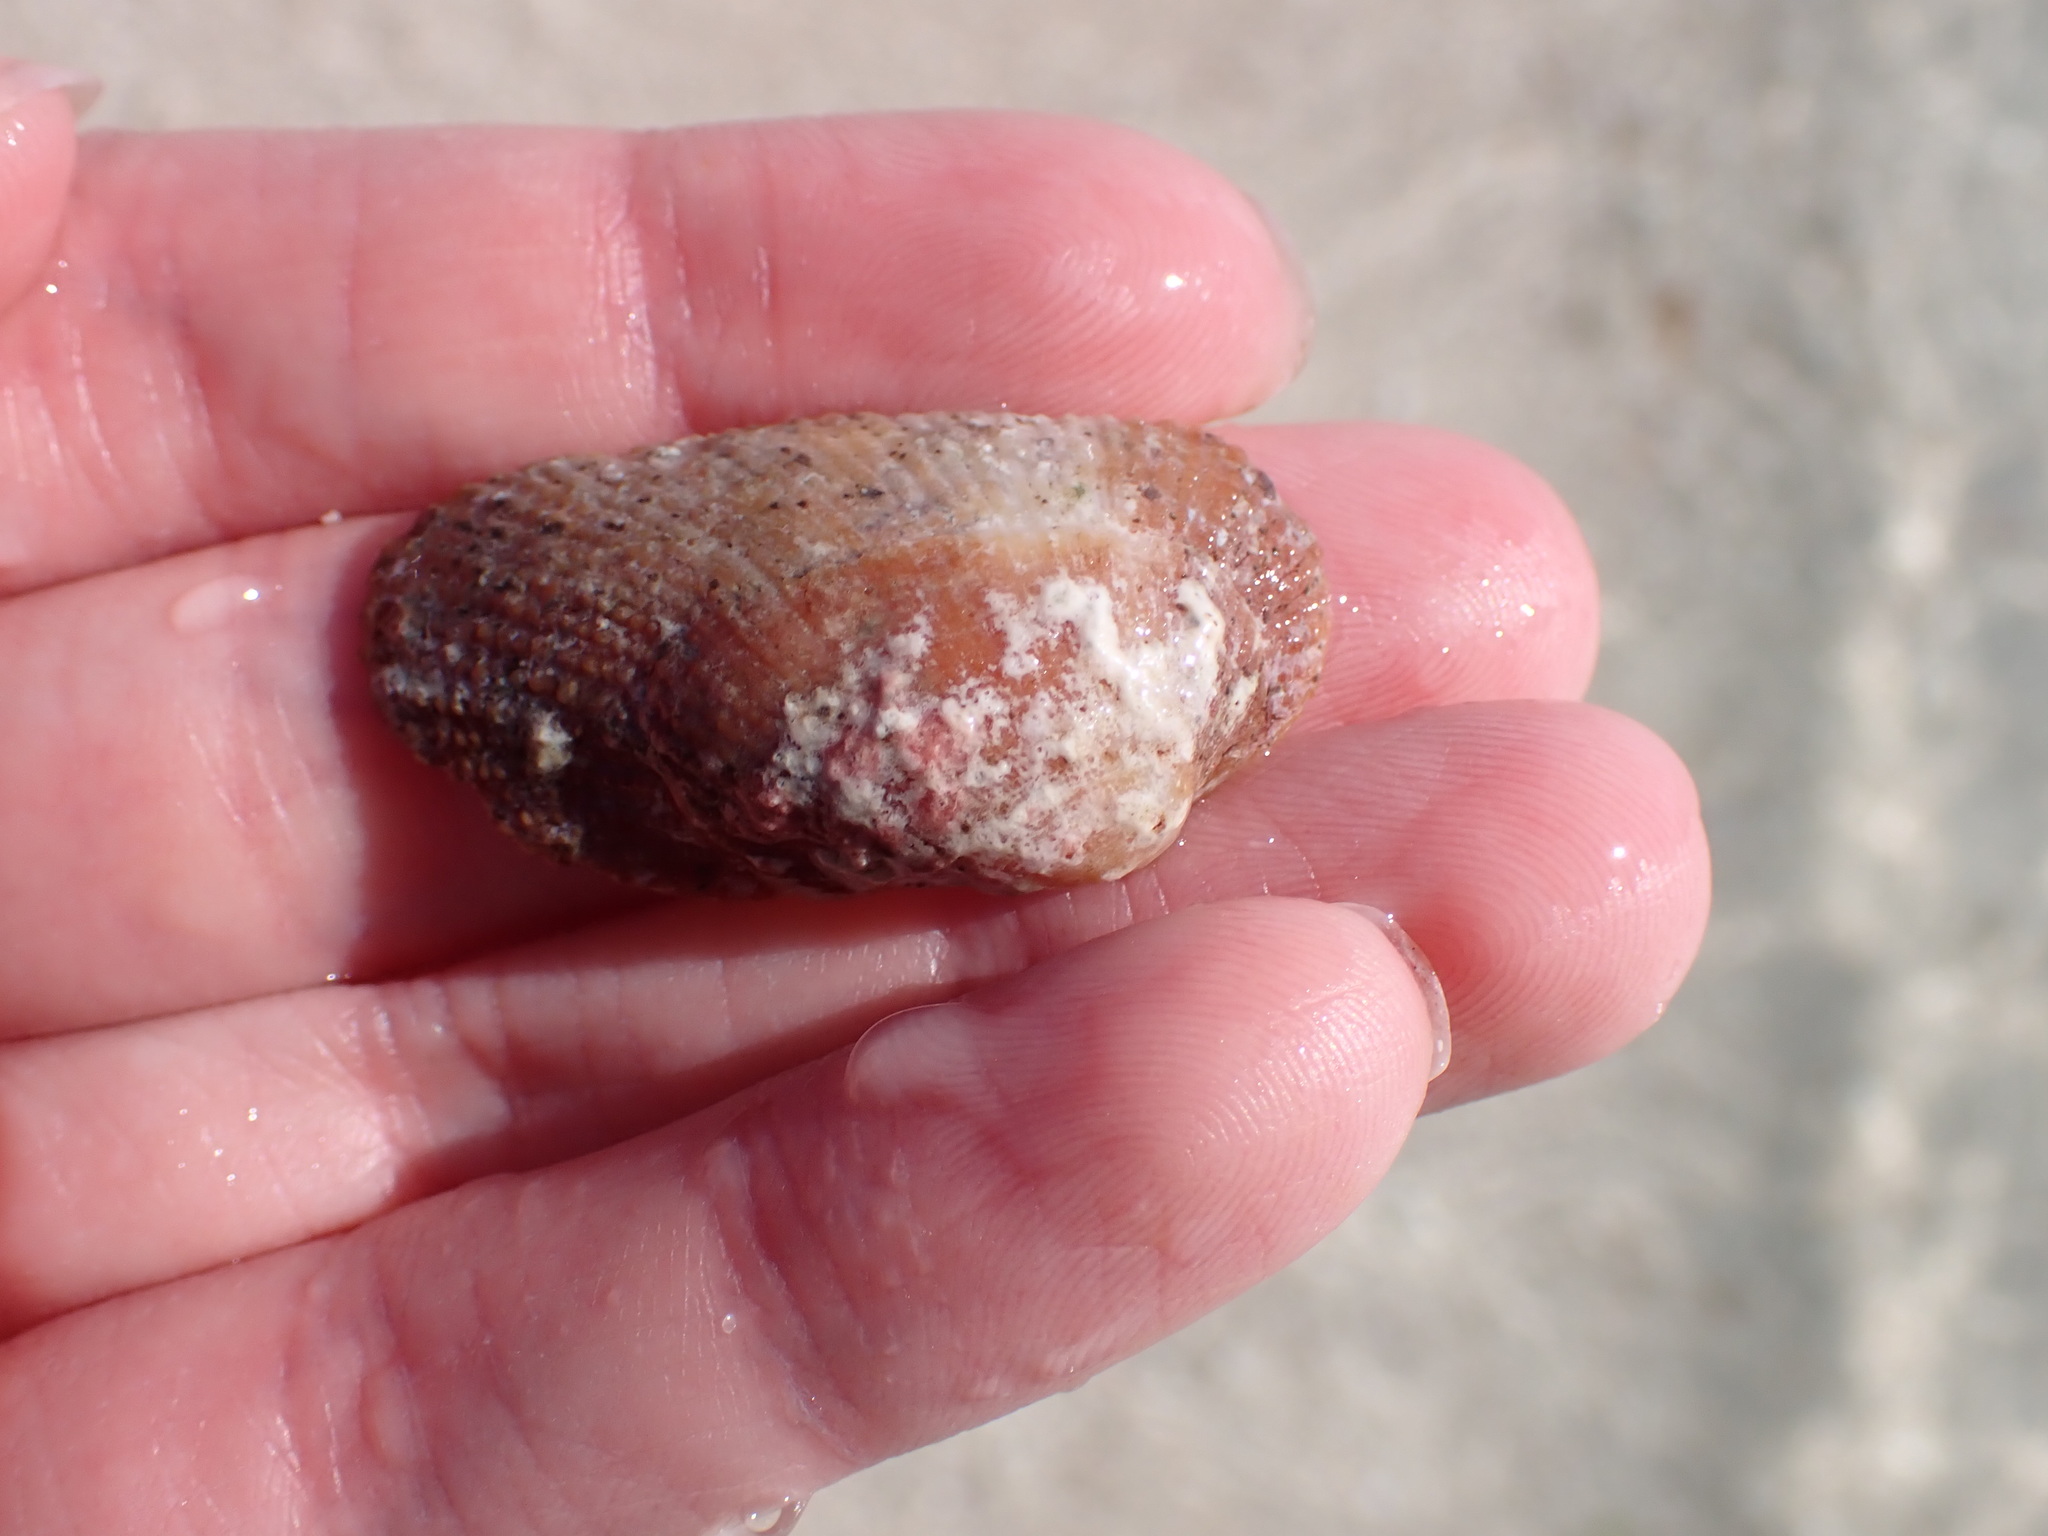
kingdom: Animalia
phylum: Mollusca
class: Bivalvia
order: Arcida
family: Arcidae
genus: Barbatia
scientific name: Barbatia domingensis
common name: White miniature ark
